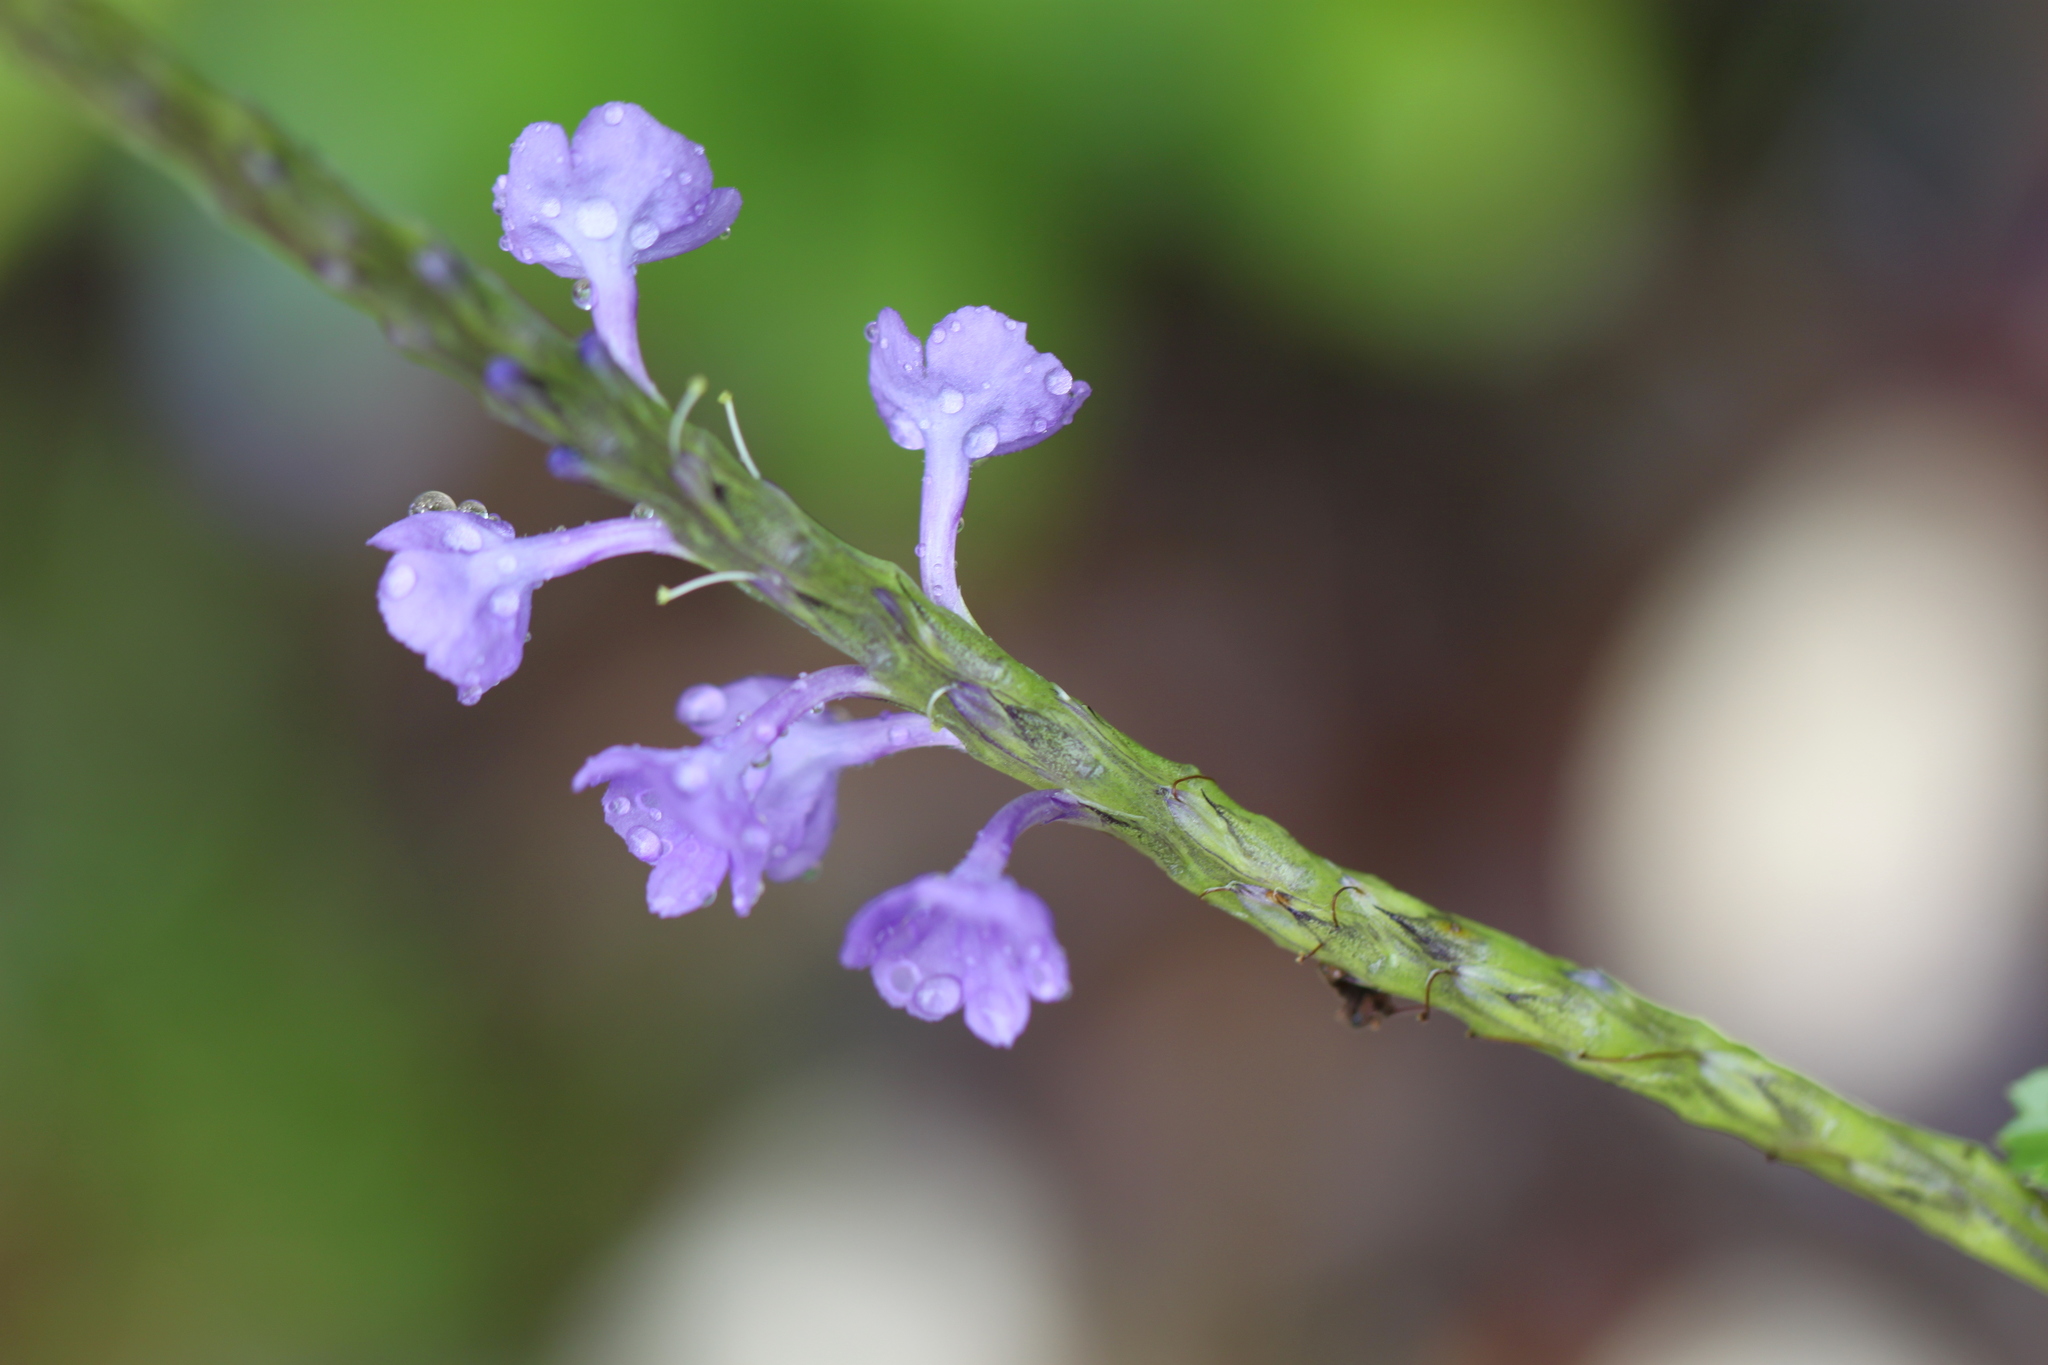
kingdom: Plantae
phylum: Tracheophyta
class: Magnoliopsida
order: Lamiales
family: Verbenaceae
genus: Stachytarpheta
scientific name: Stachytarpheta jamaicensis
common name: Light-blue snakeweed
